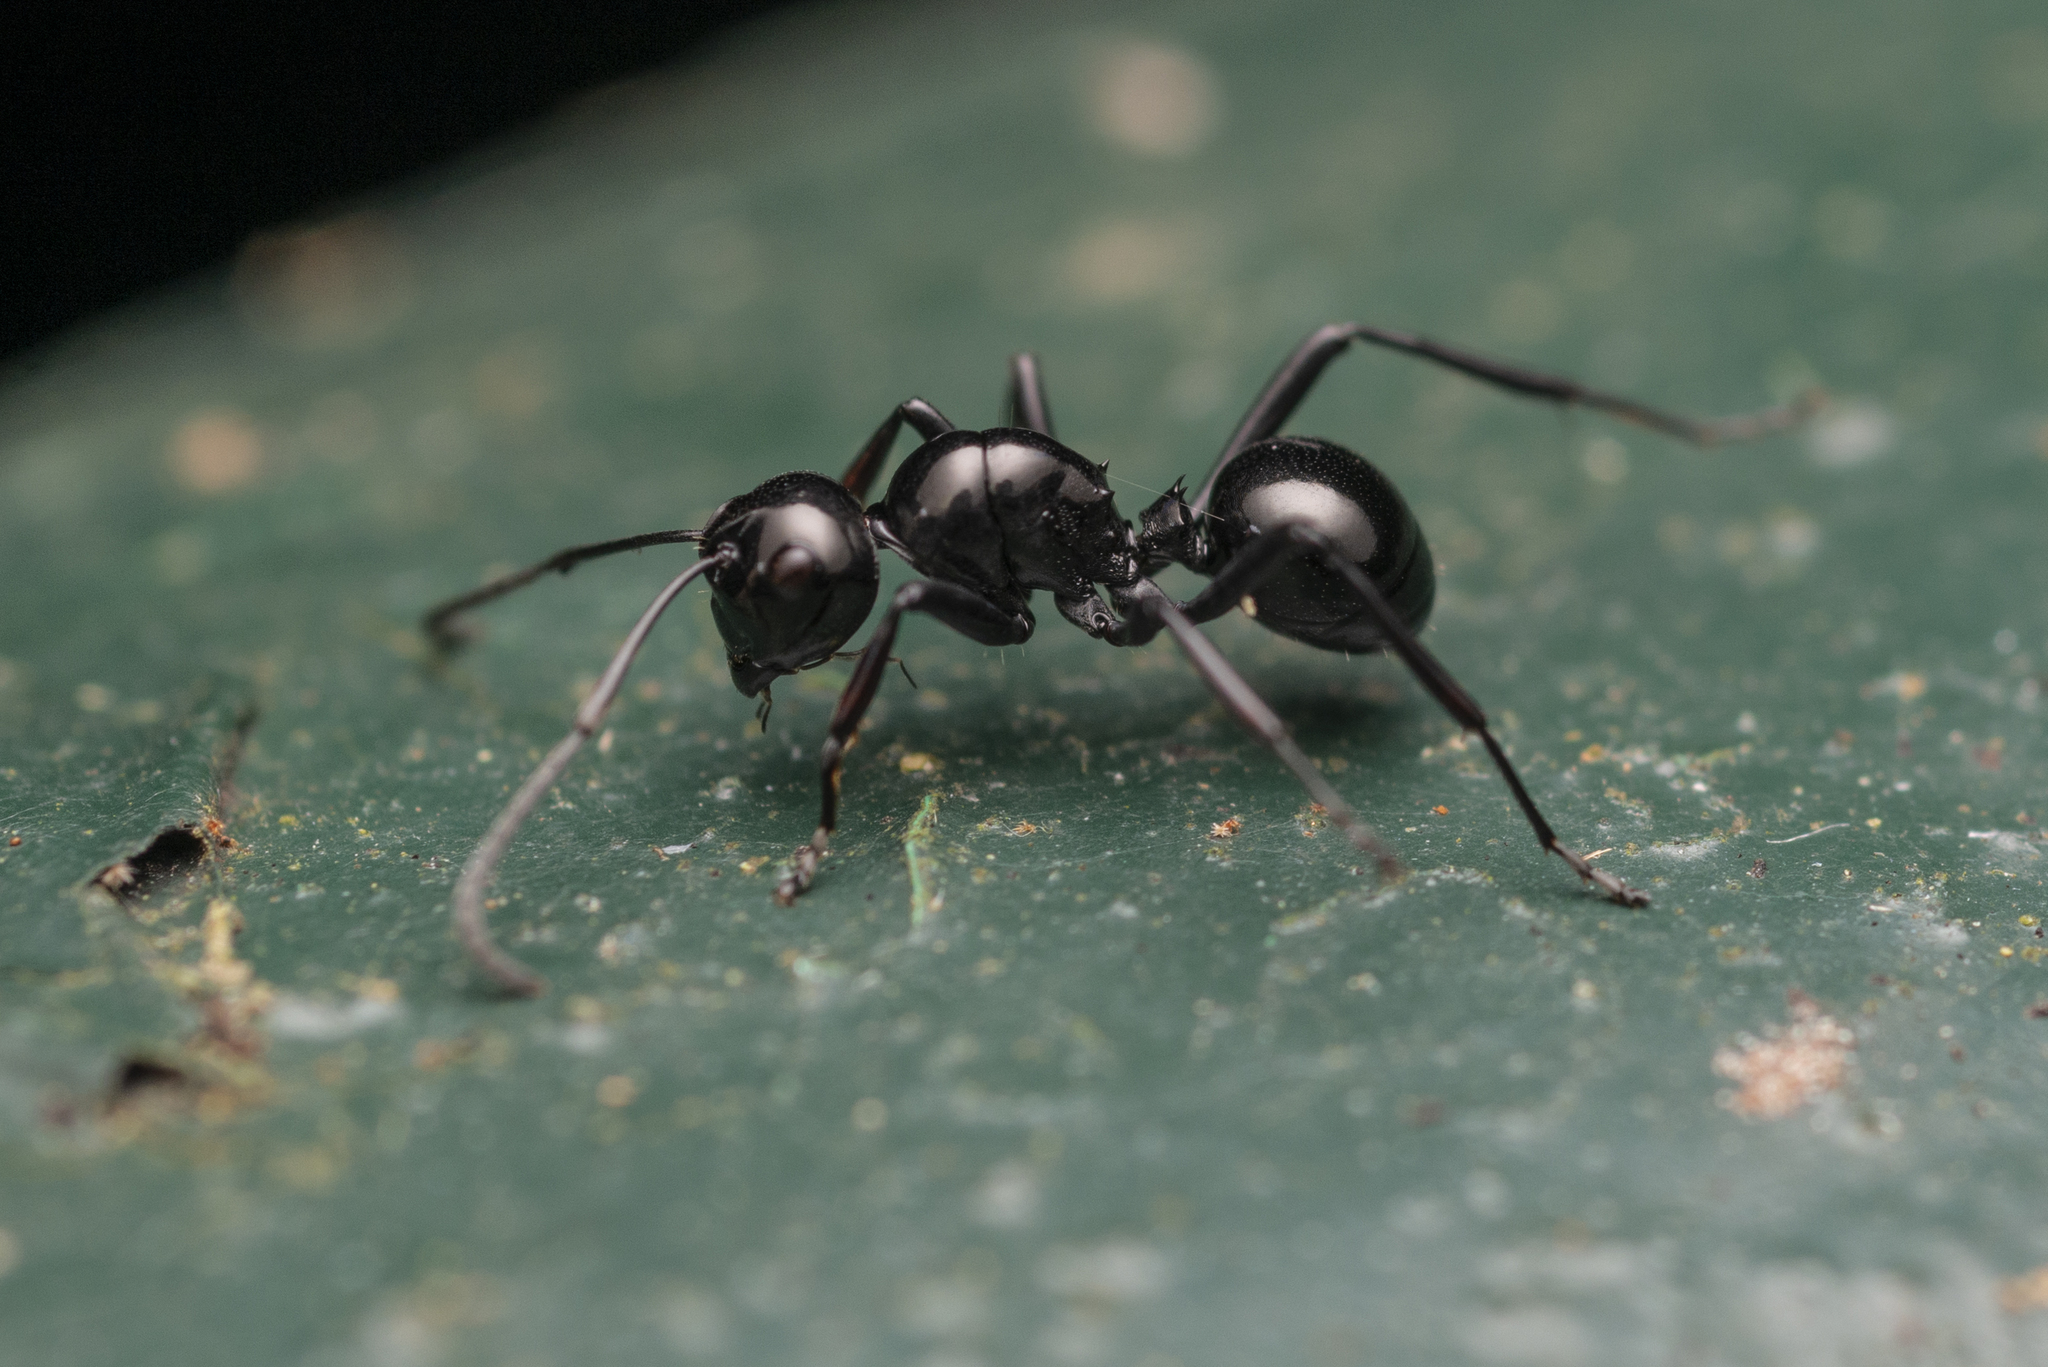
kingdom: Animalia
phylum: Arthropoda
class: Insecta
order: Hymenoptera
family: Formicidae
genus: Polyrhachis
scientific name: Polyrhachis demangei
